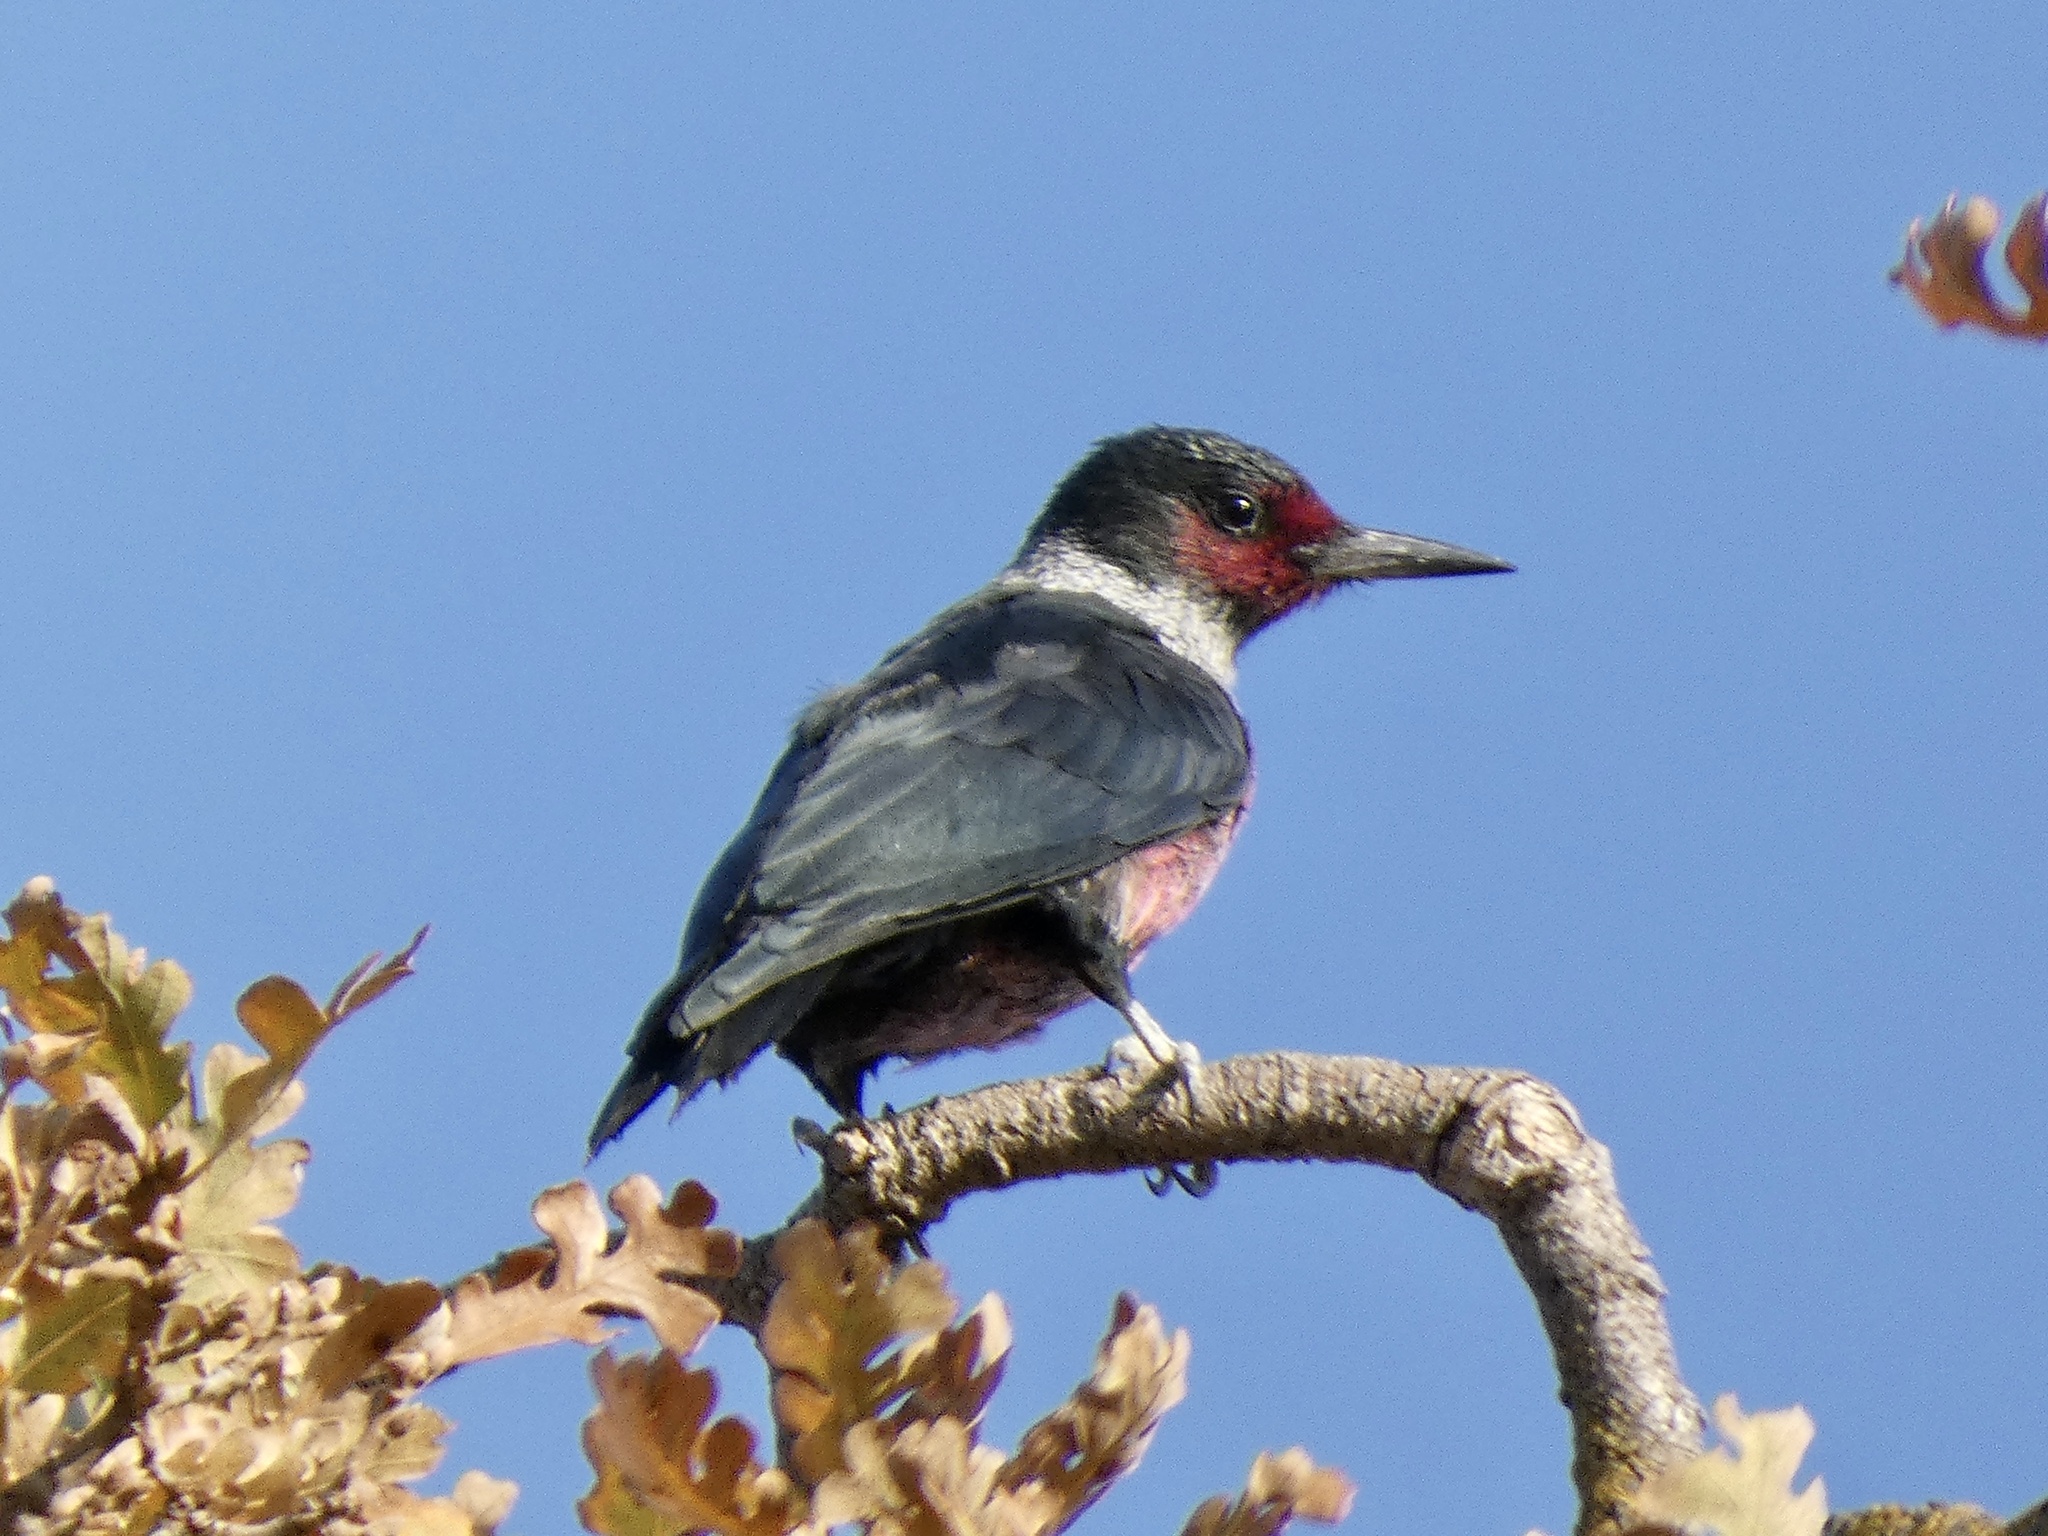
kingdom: Animalia
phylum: Chordata
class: Aves
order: Piciformes
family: Picidae
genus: Melanerpes
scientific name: Melanerpes lewis
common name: Lewis's woodpecker
